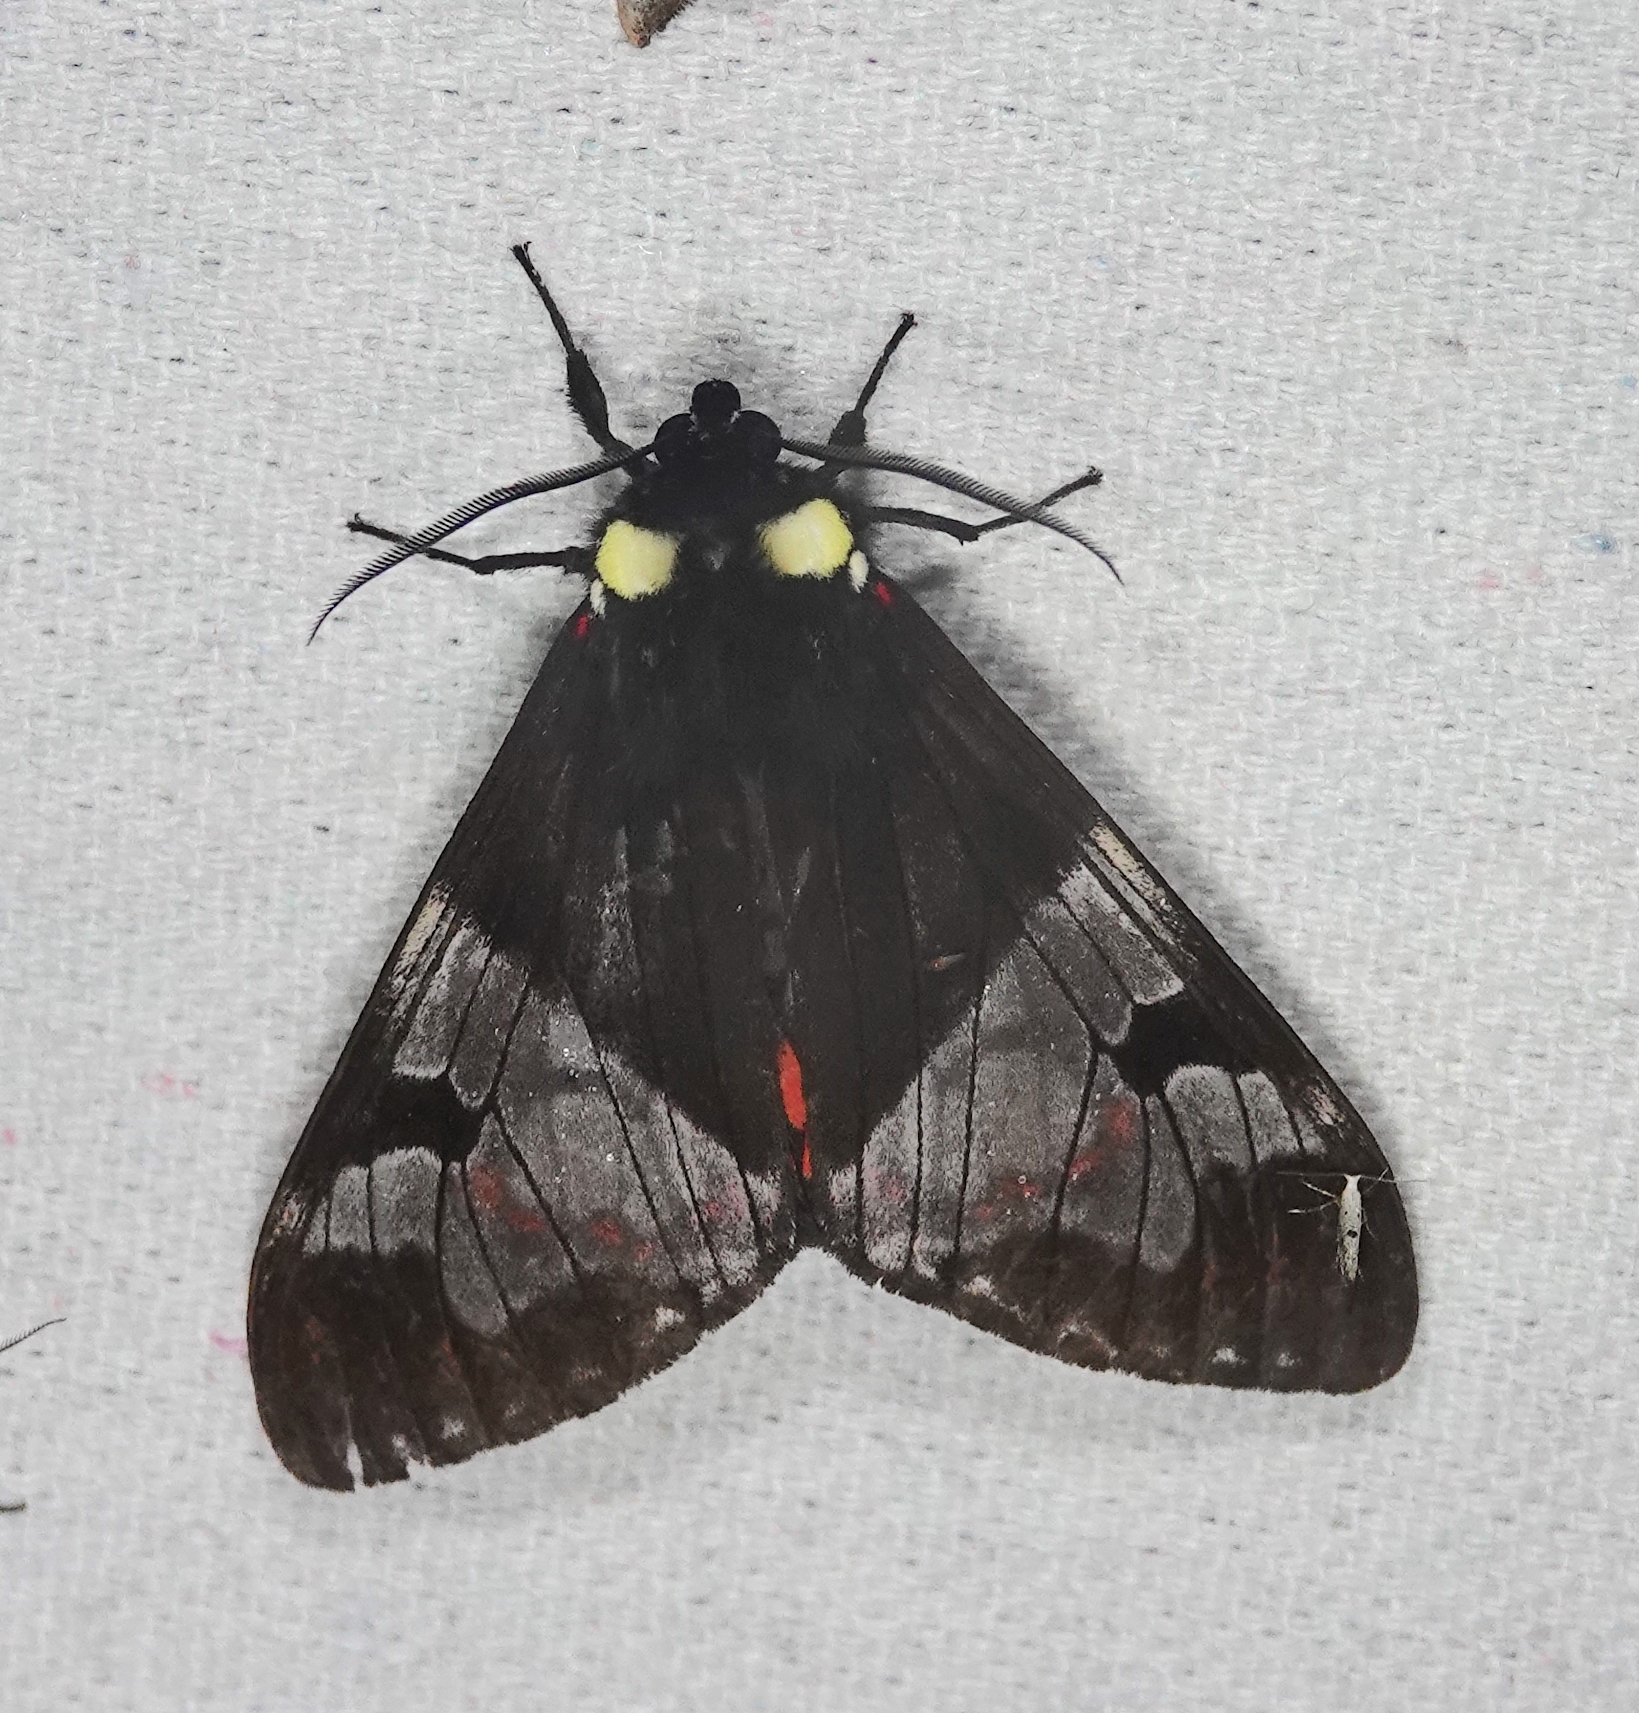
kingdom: Animalia
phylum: Arthropoda
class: Insecta
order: Lepidoptera
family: Erebidae
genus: Dysschema
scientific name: Dysschema marginalis
